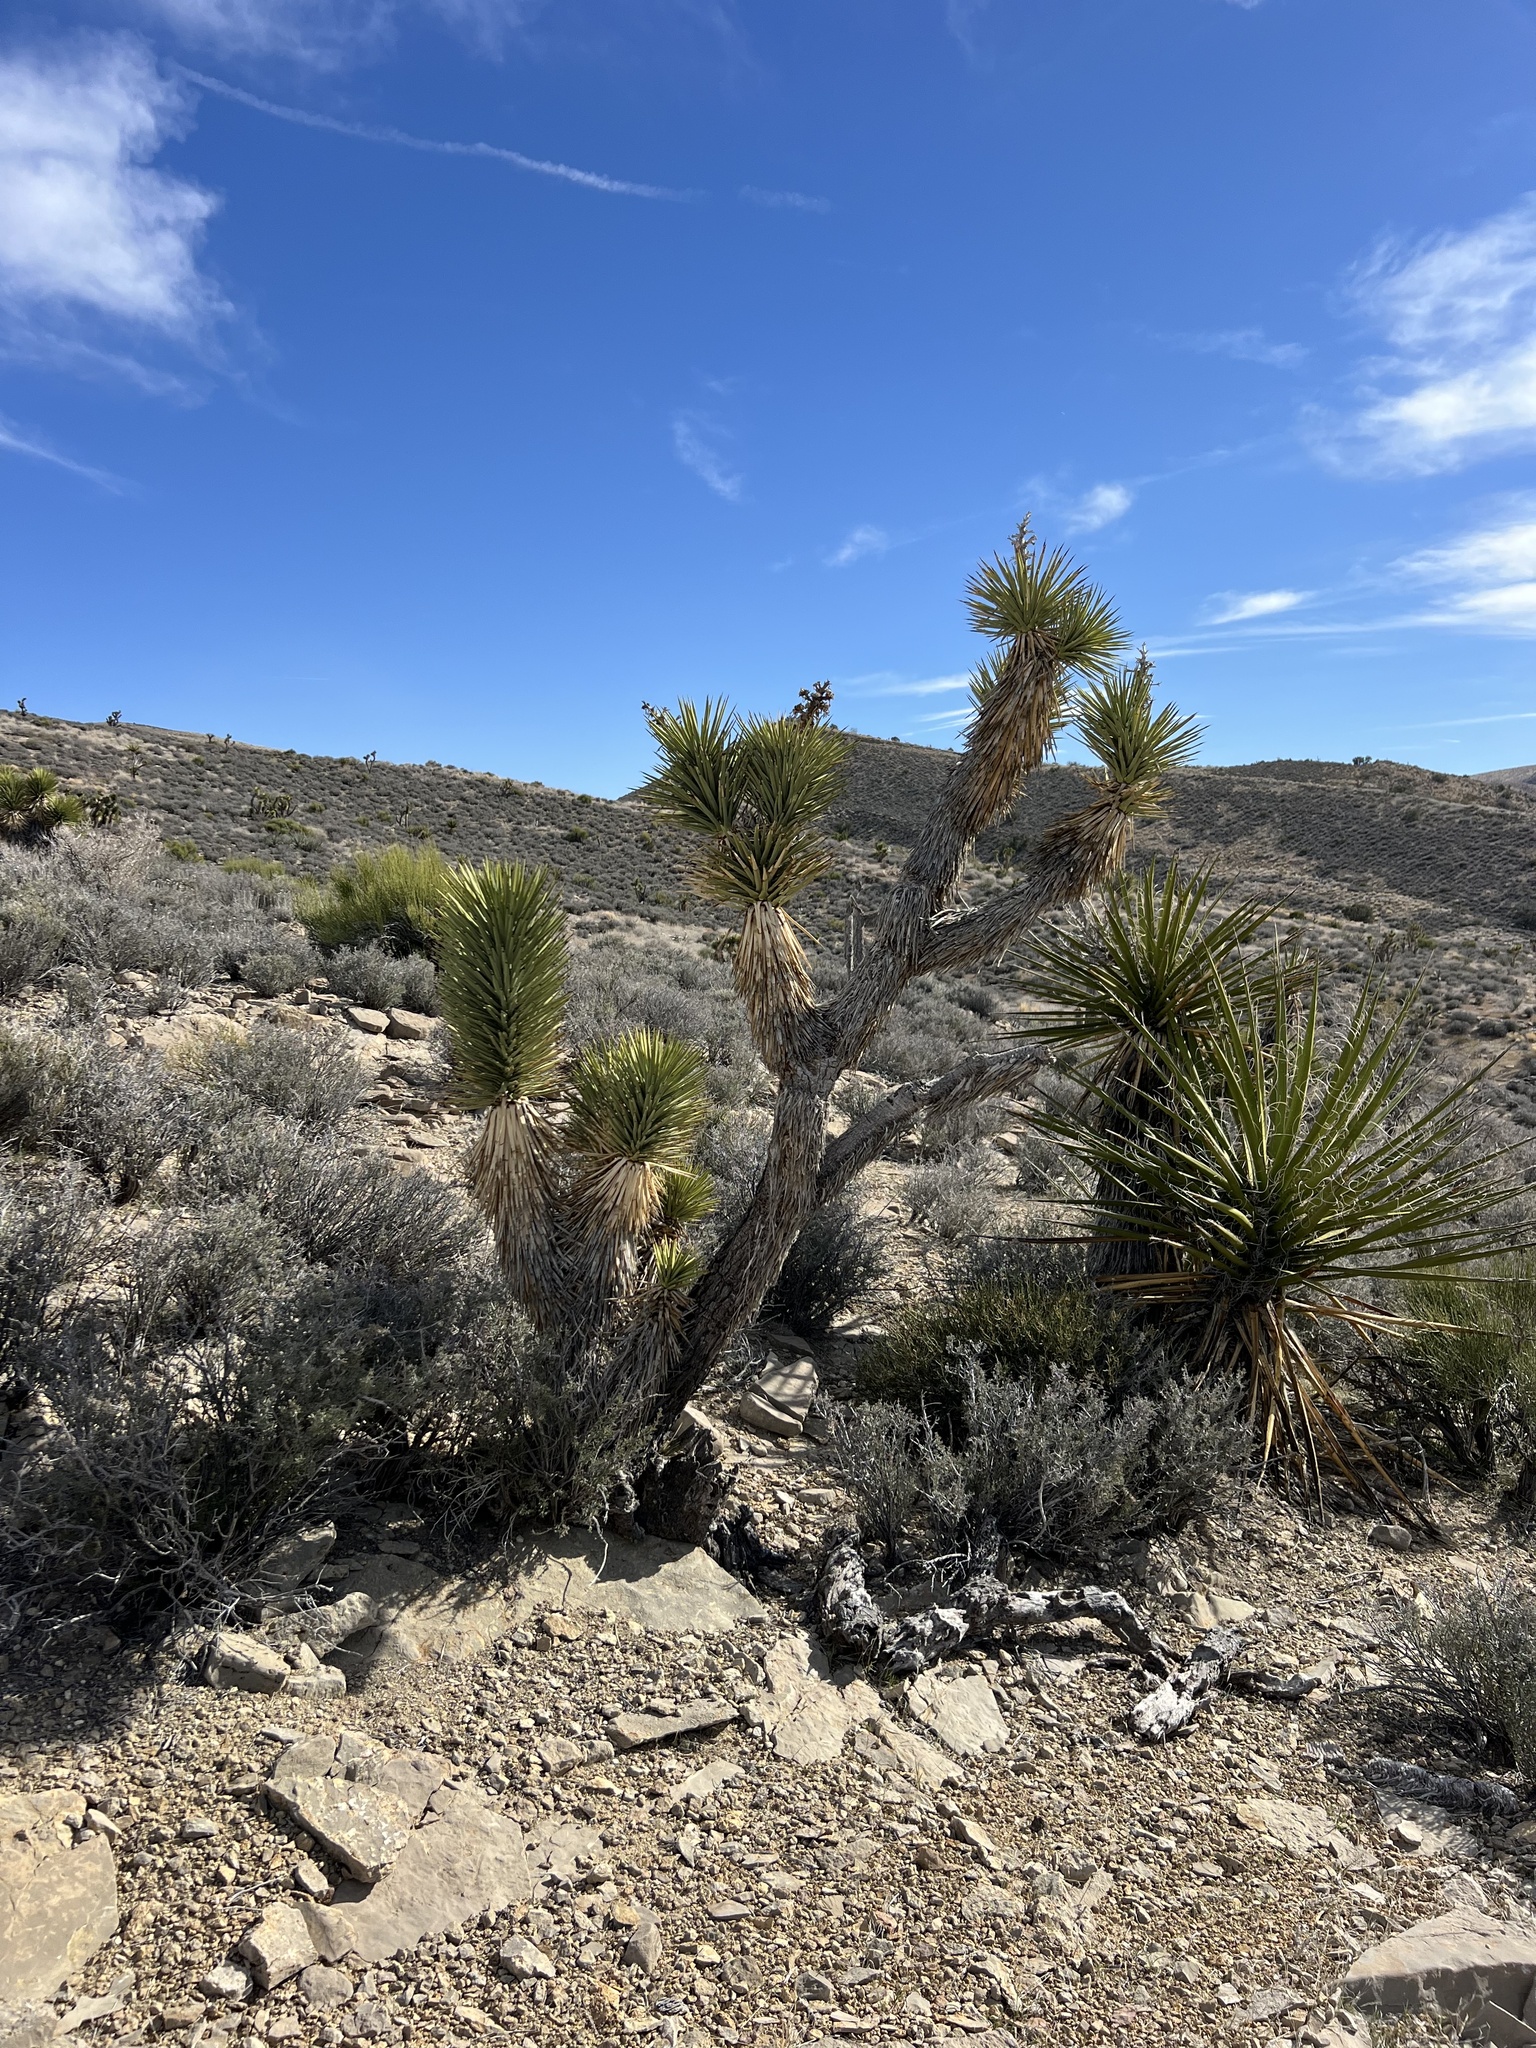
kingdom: Plantae
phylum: Tracheophyta
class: Liliopsida
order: Asparagales
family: Asparagaceae
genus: Yucca
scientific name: Yucca brevifolia
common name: Joshua tree
